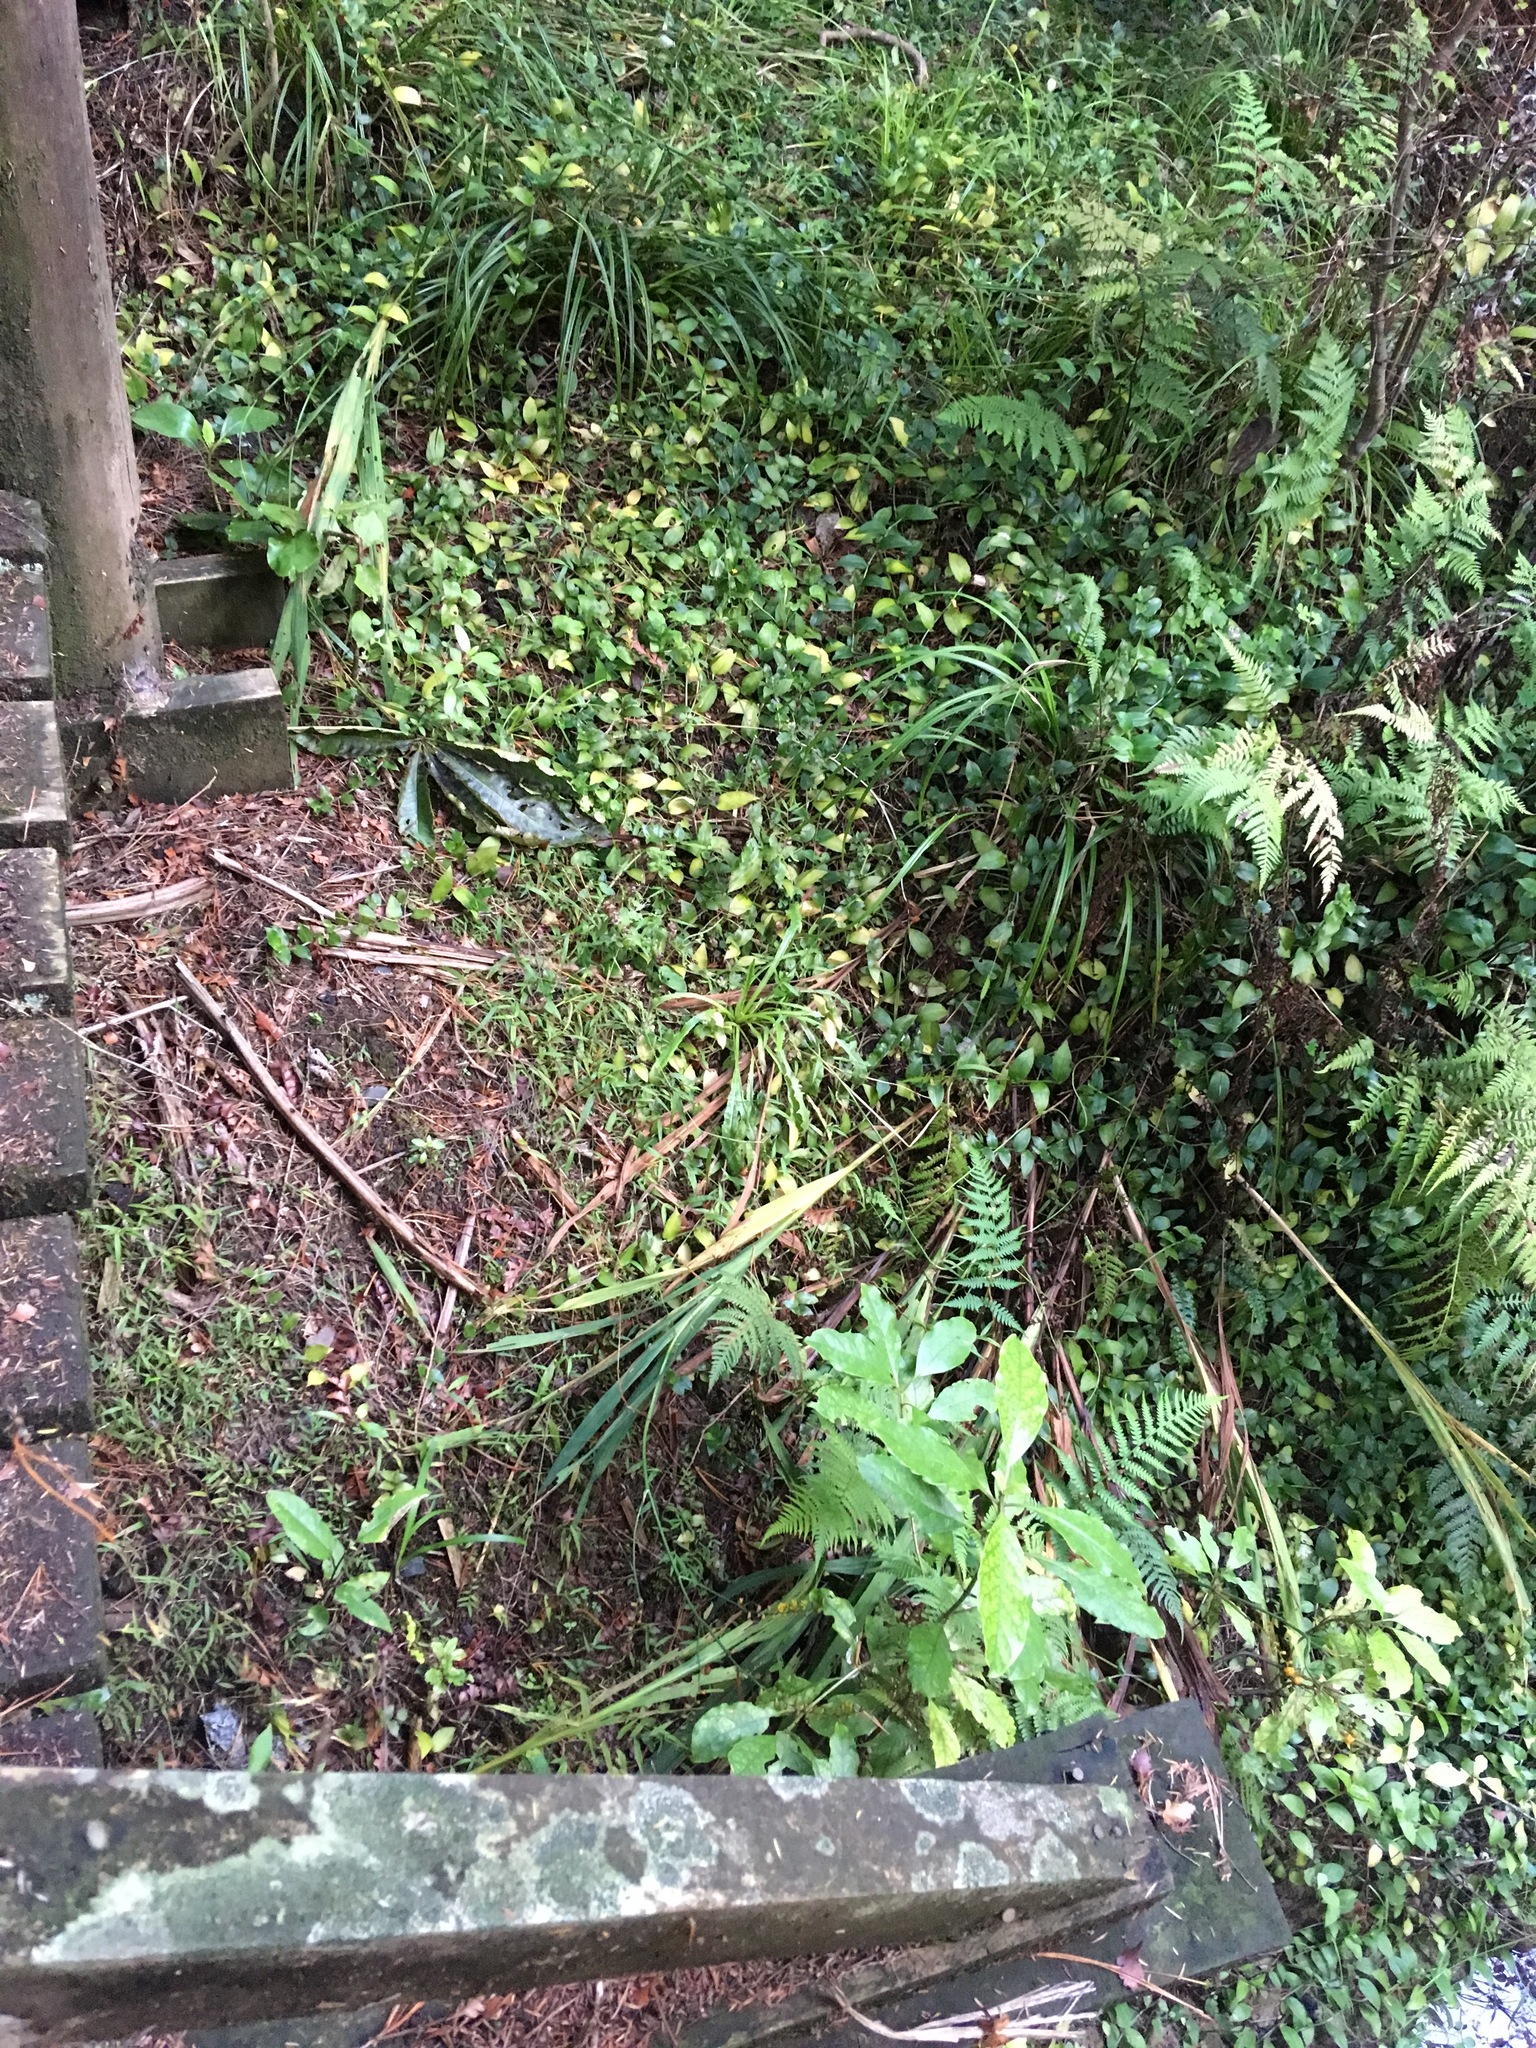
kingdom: Plantae
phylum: Tracheophyta
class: Liliopsida
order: Commelinales
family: Commelinaceae
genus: Tradescantia
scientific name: Tradescantia fluminensis
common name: Wandering-jew
